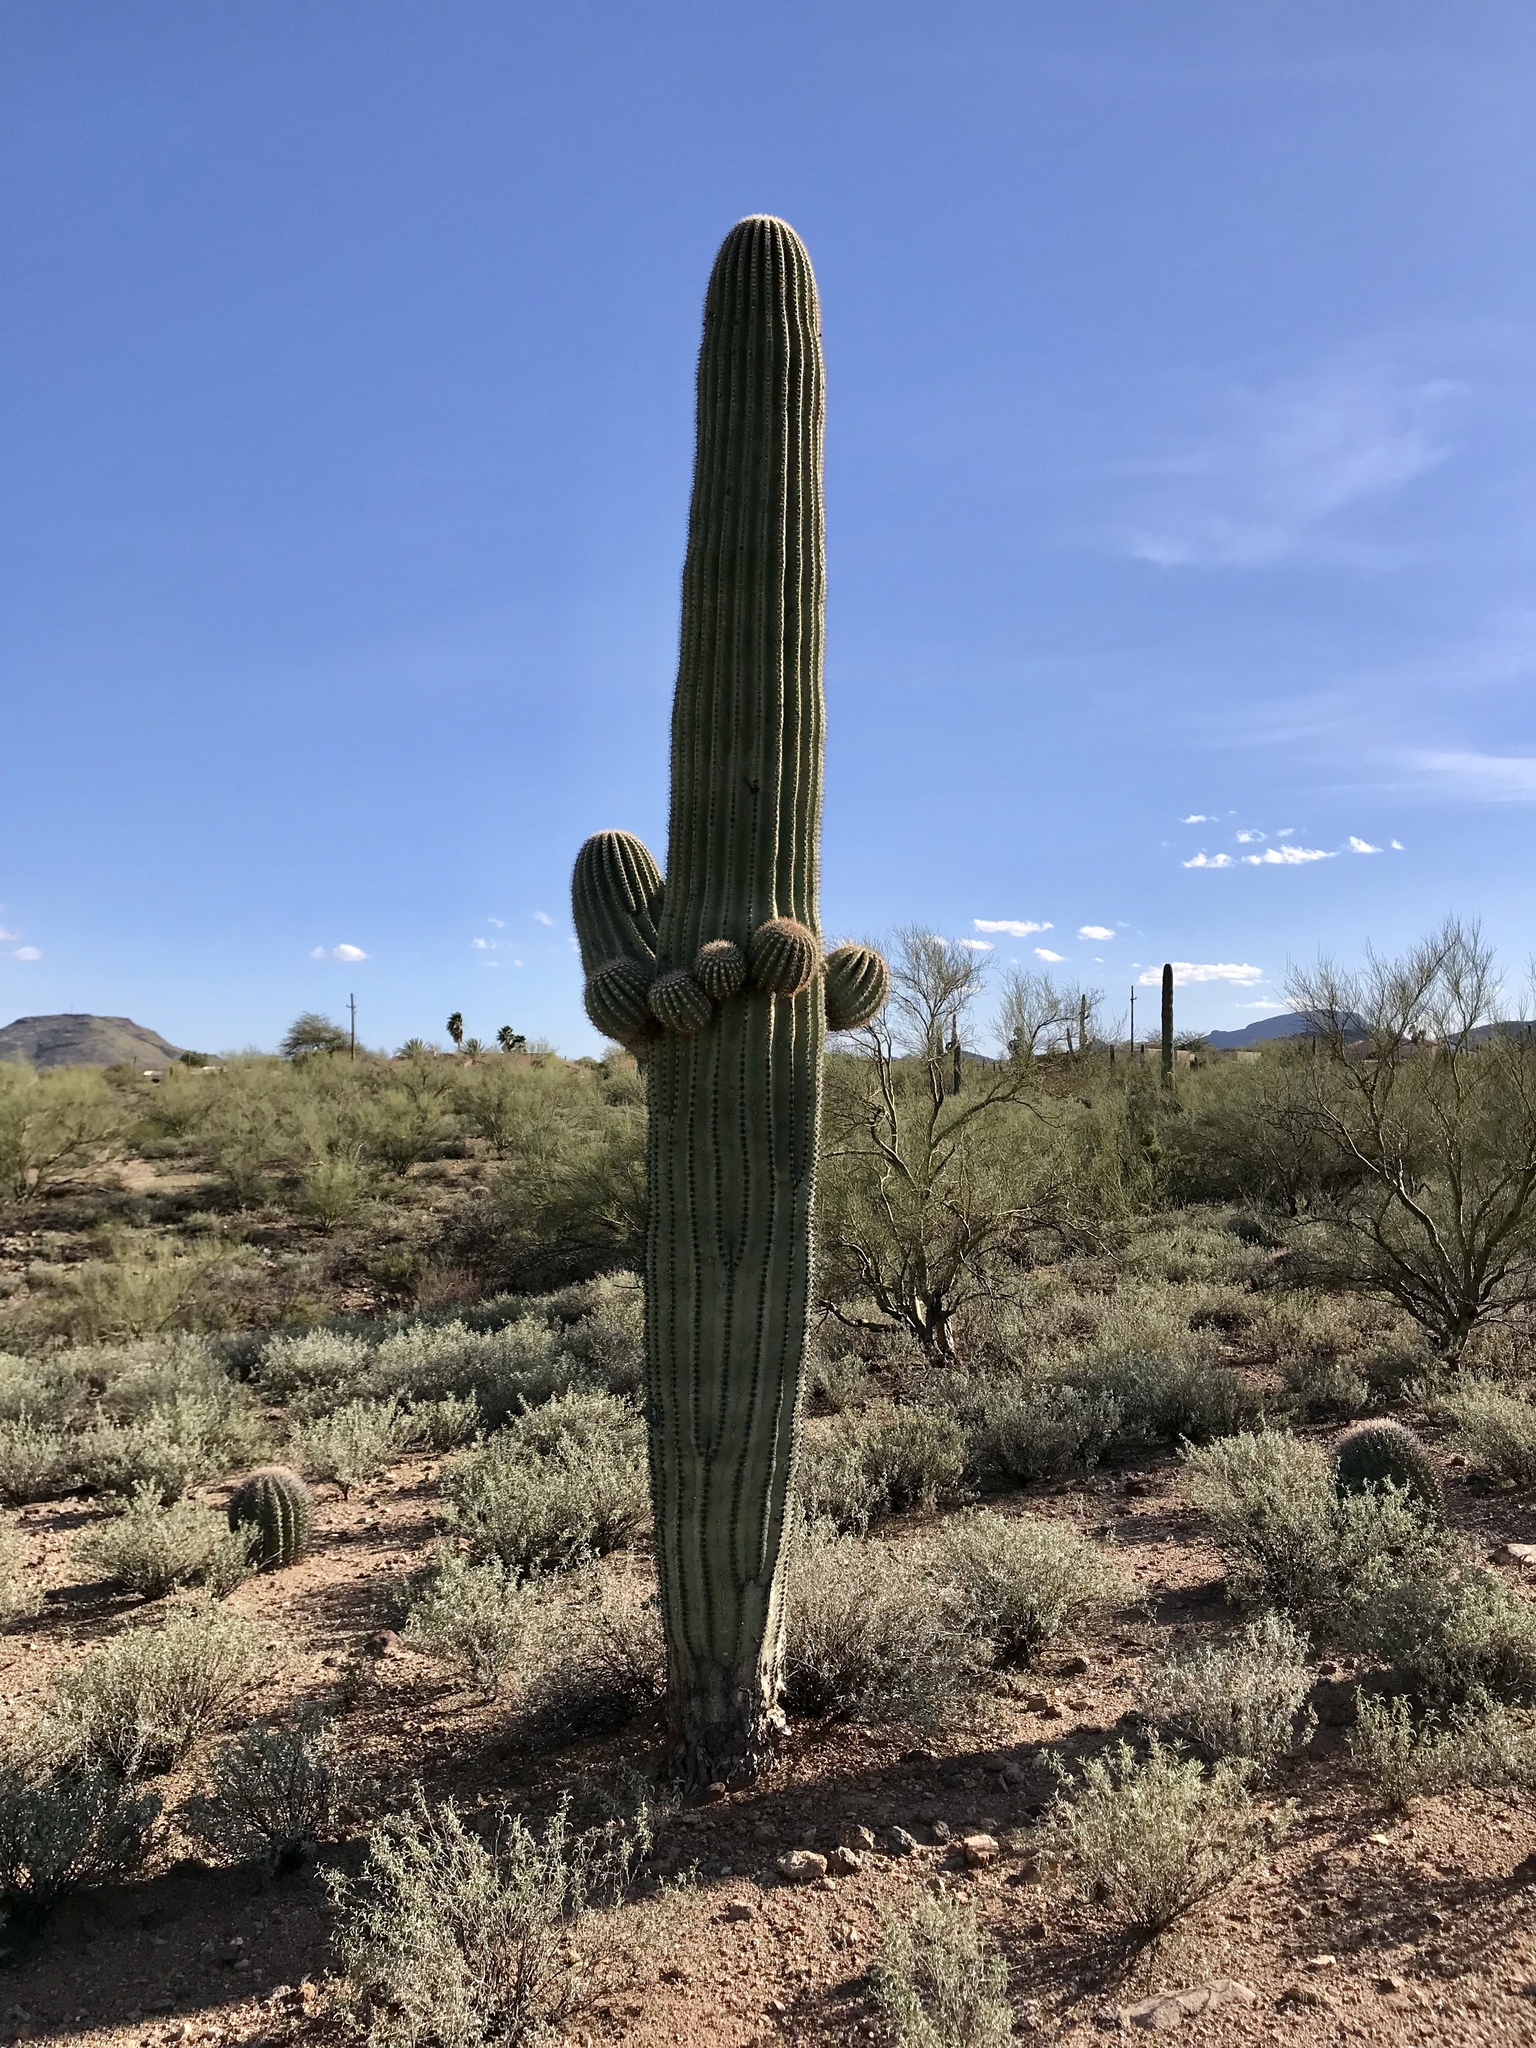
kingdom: Plantae
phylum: Tracheophyta
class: Magnoliopsida
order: Caryophyllales
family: Cactaceae
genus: Carnegiea
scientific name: Carnegiea gigantea
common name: Saguaro
